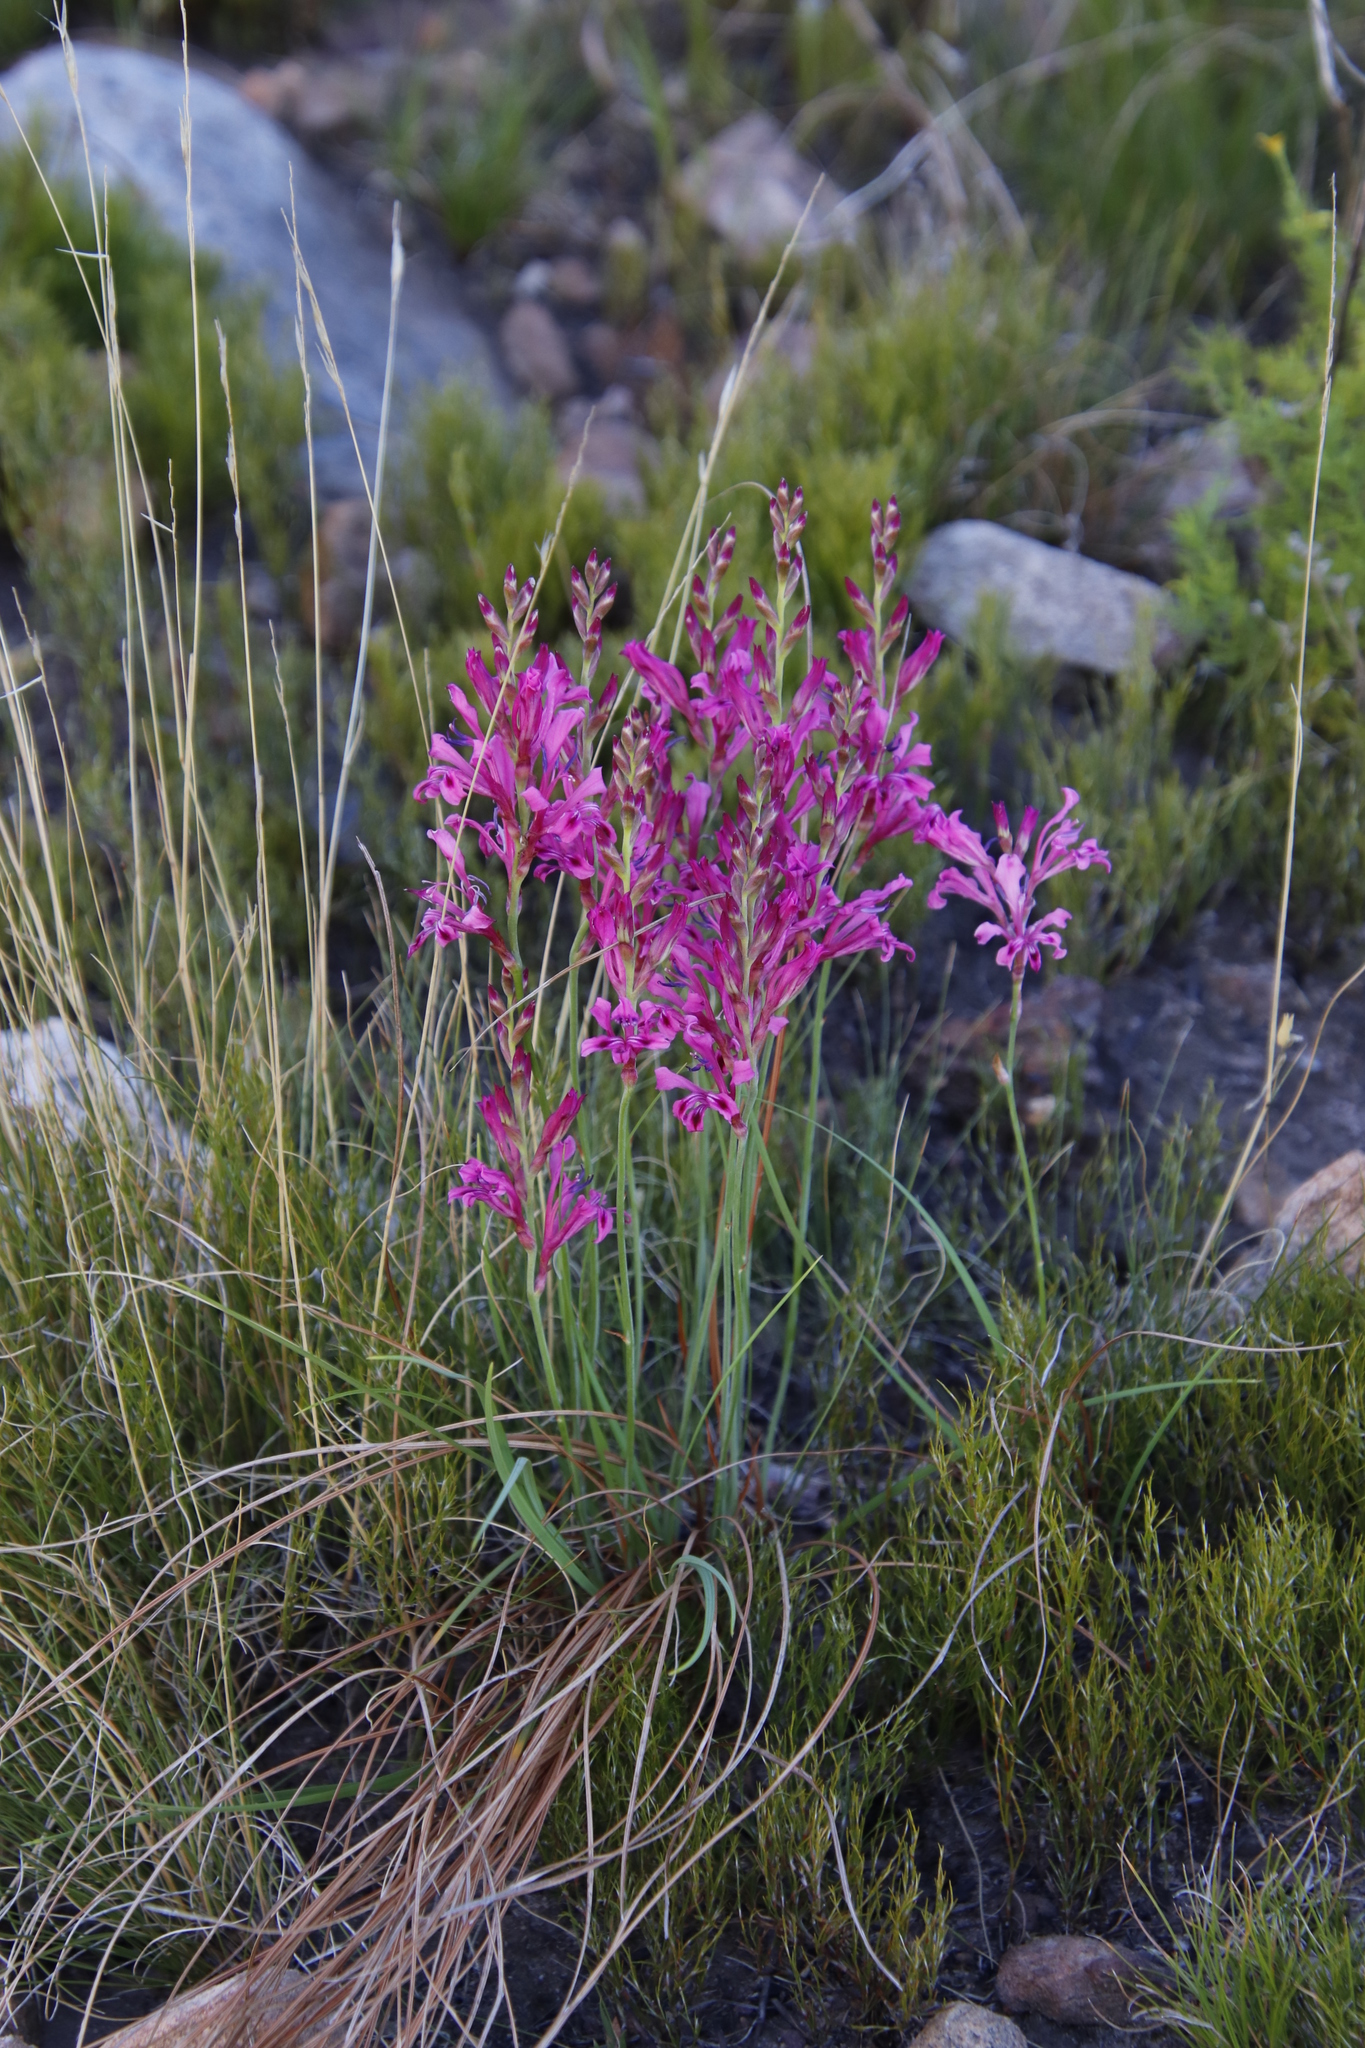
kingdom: Plantae
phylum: Tracheophyta
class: Liliopsida
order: Asparagales
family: Iridaceae
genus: Tritoniopsis
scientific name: Tritoniopsis lata
